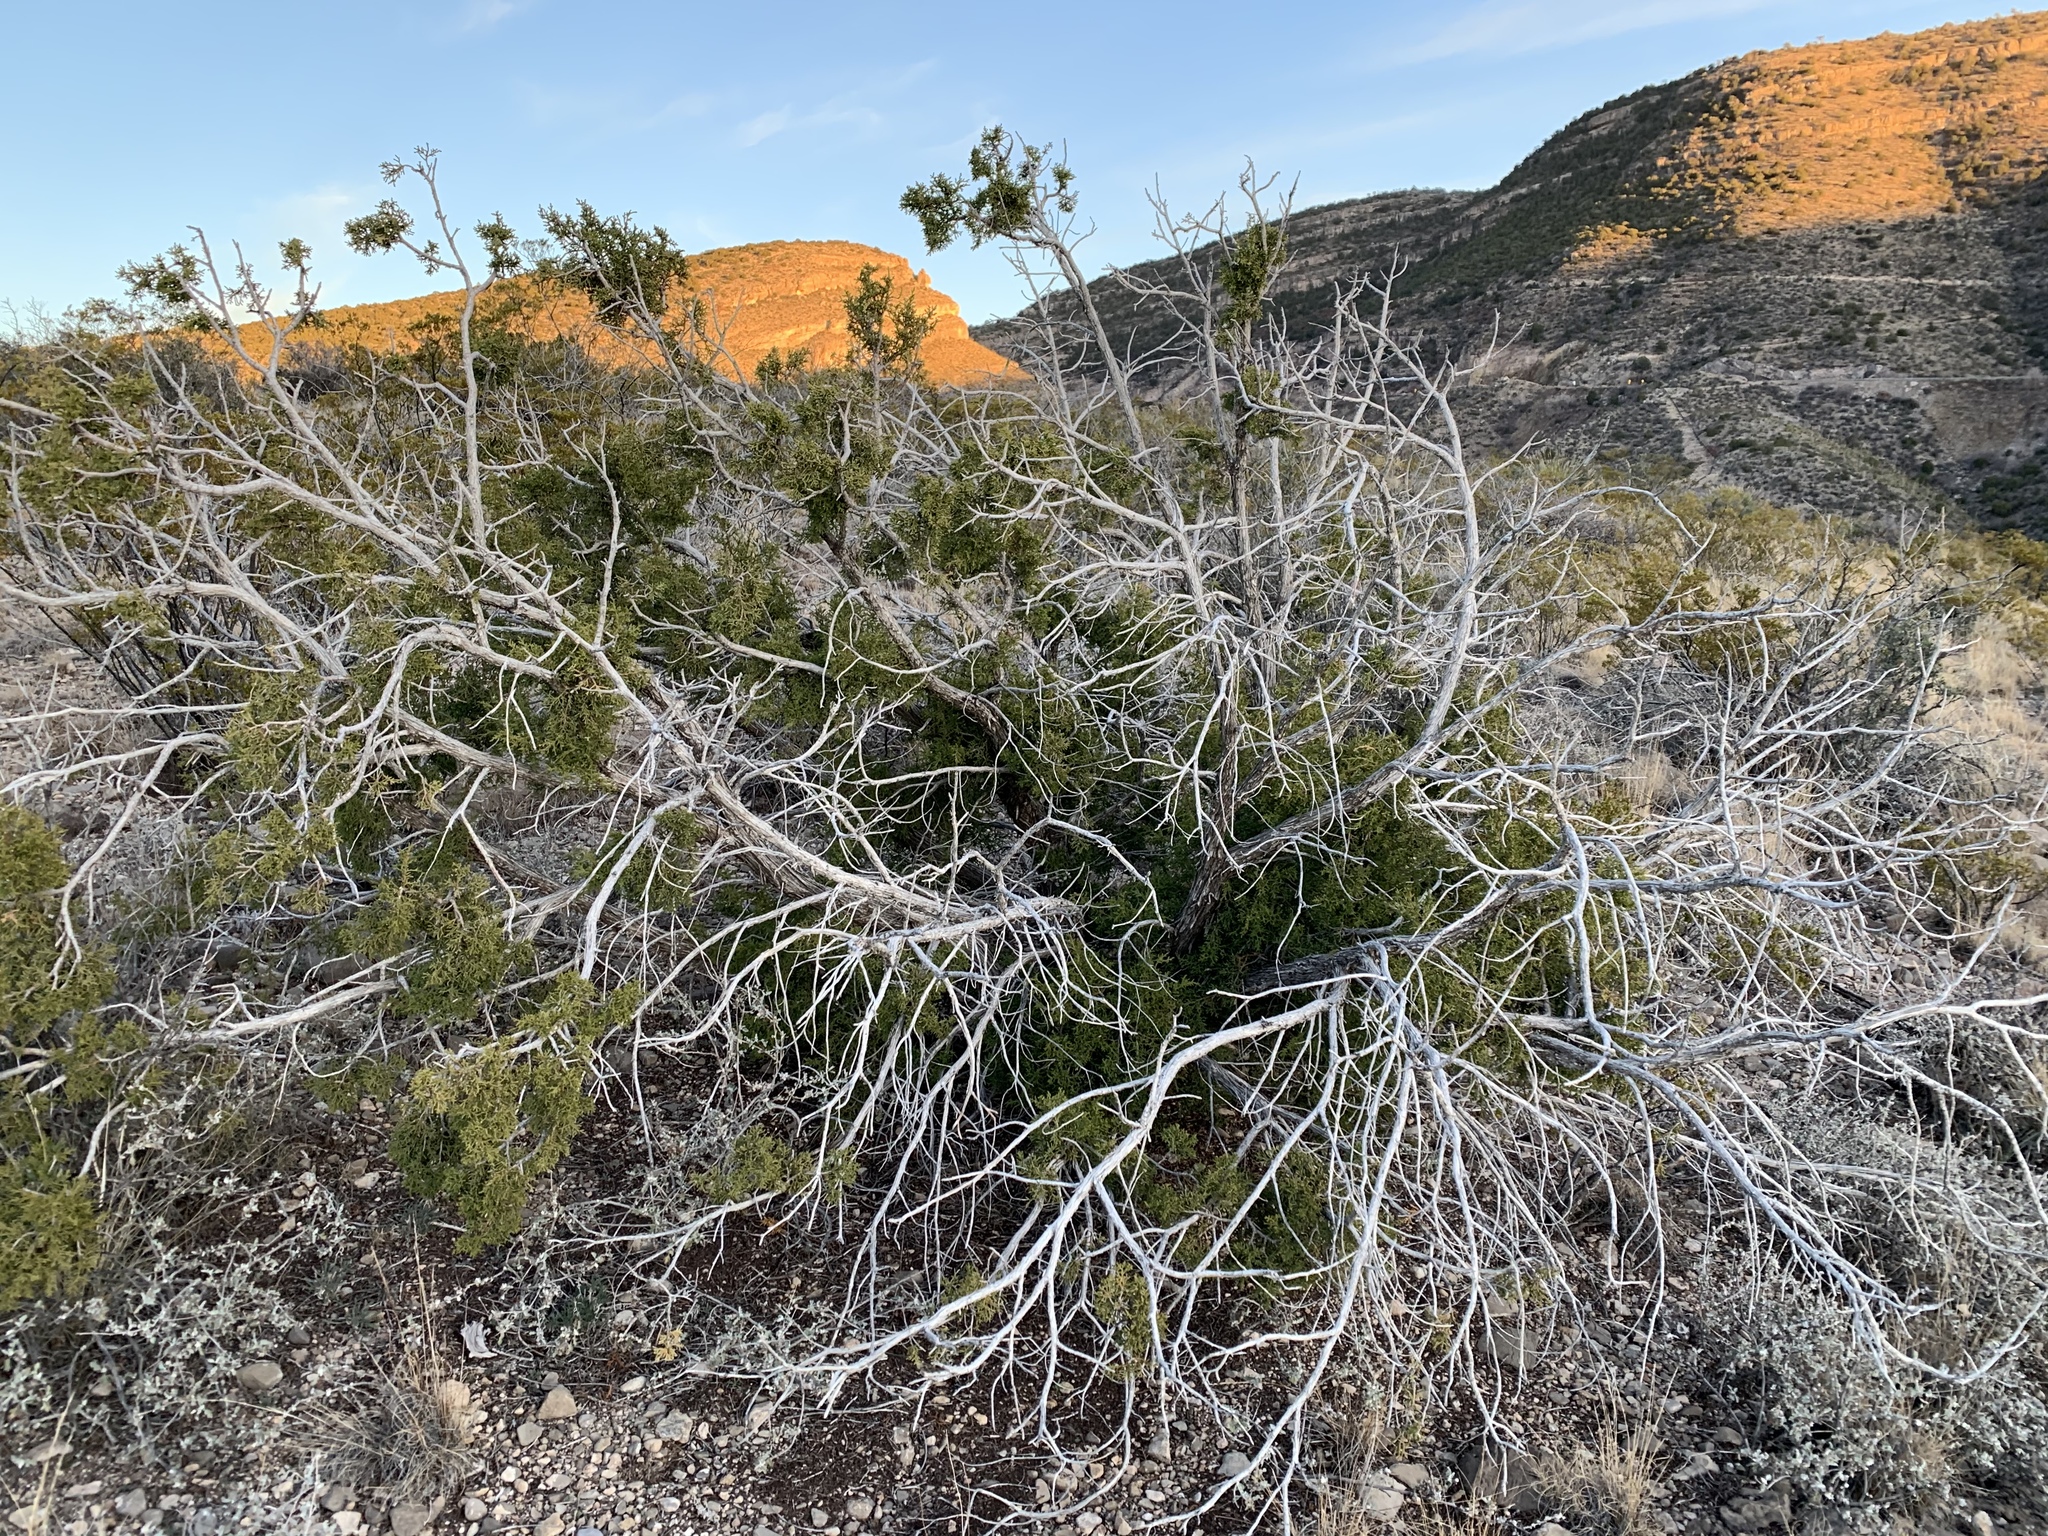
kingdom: Plantae
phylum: Tracheophyta
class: Pinopsida
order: Pinales
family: Cupressaceae
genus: Juniperus
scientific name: Juniperus monosperma
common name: One-seed juniper
